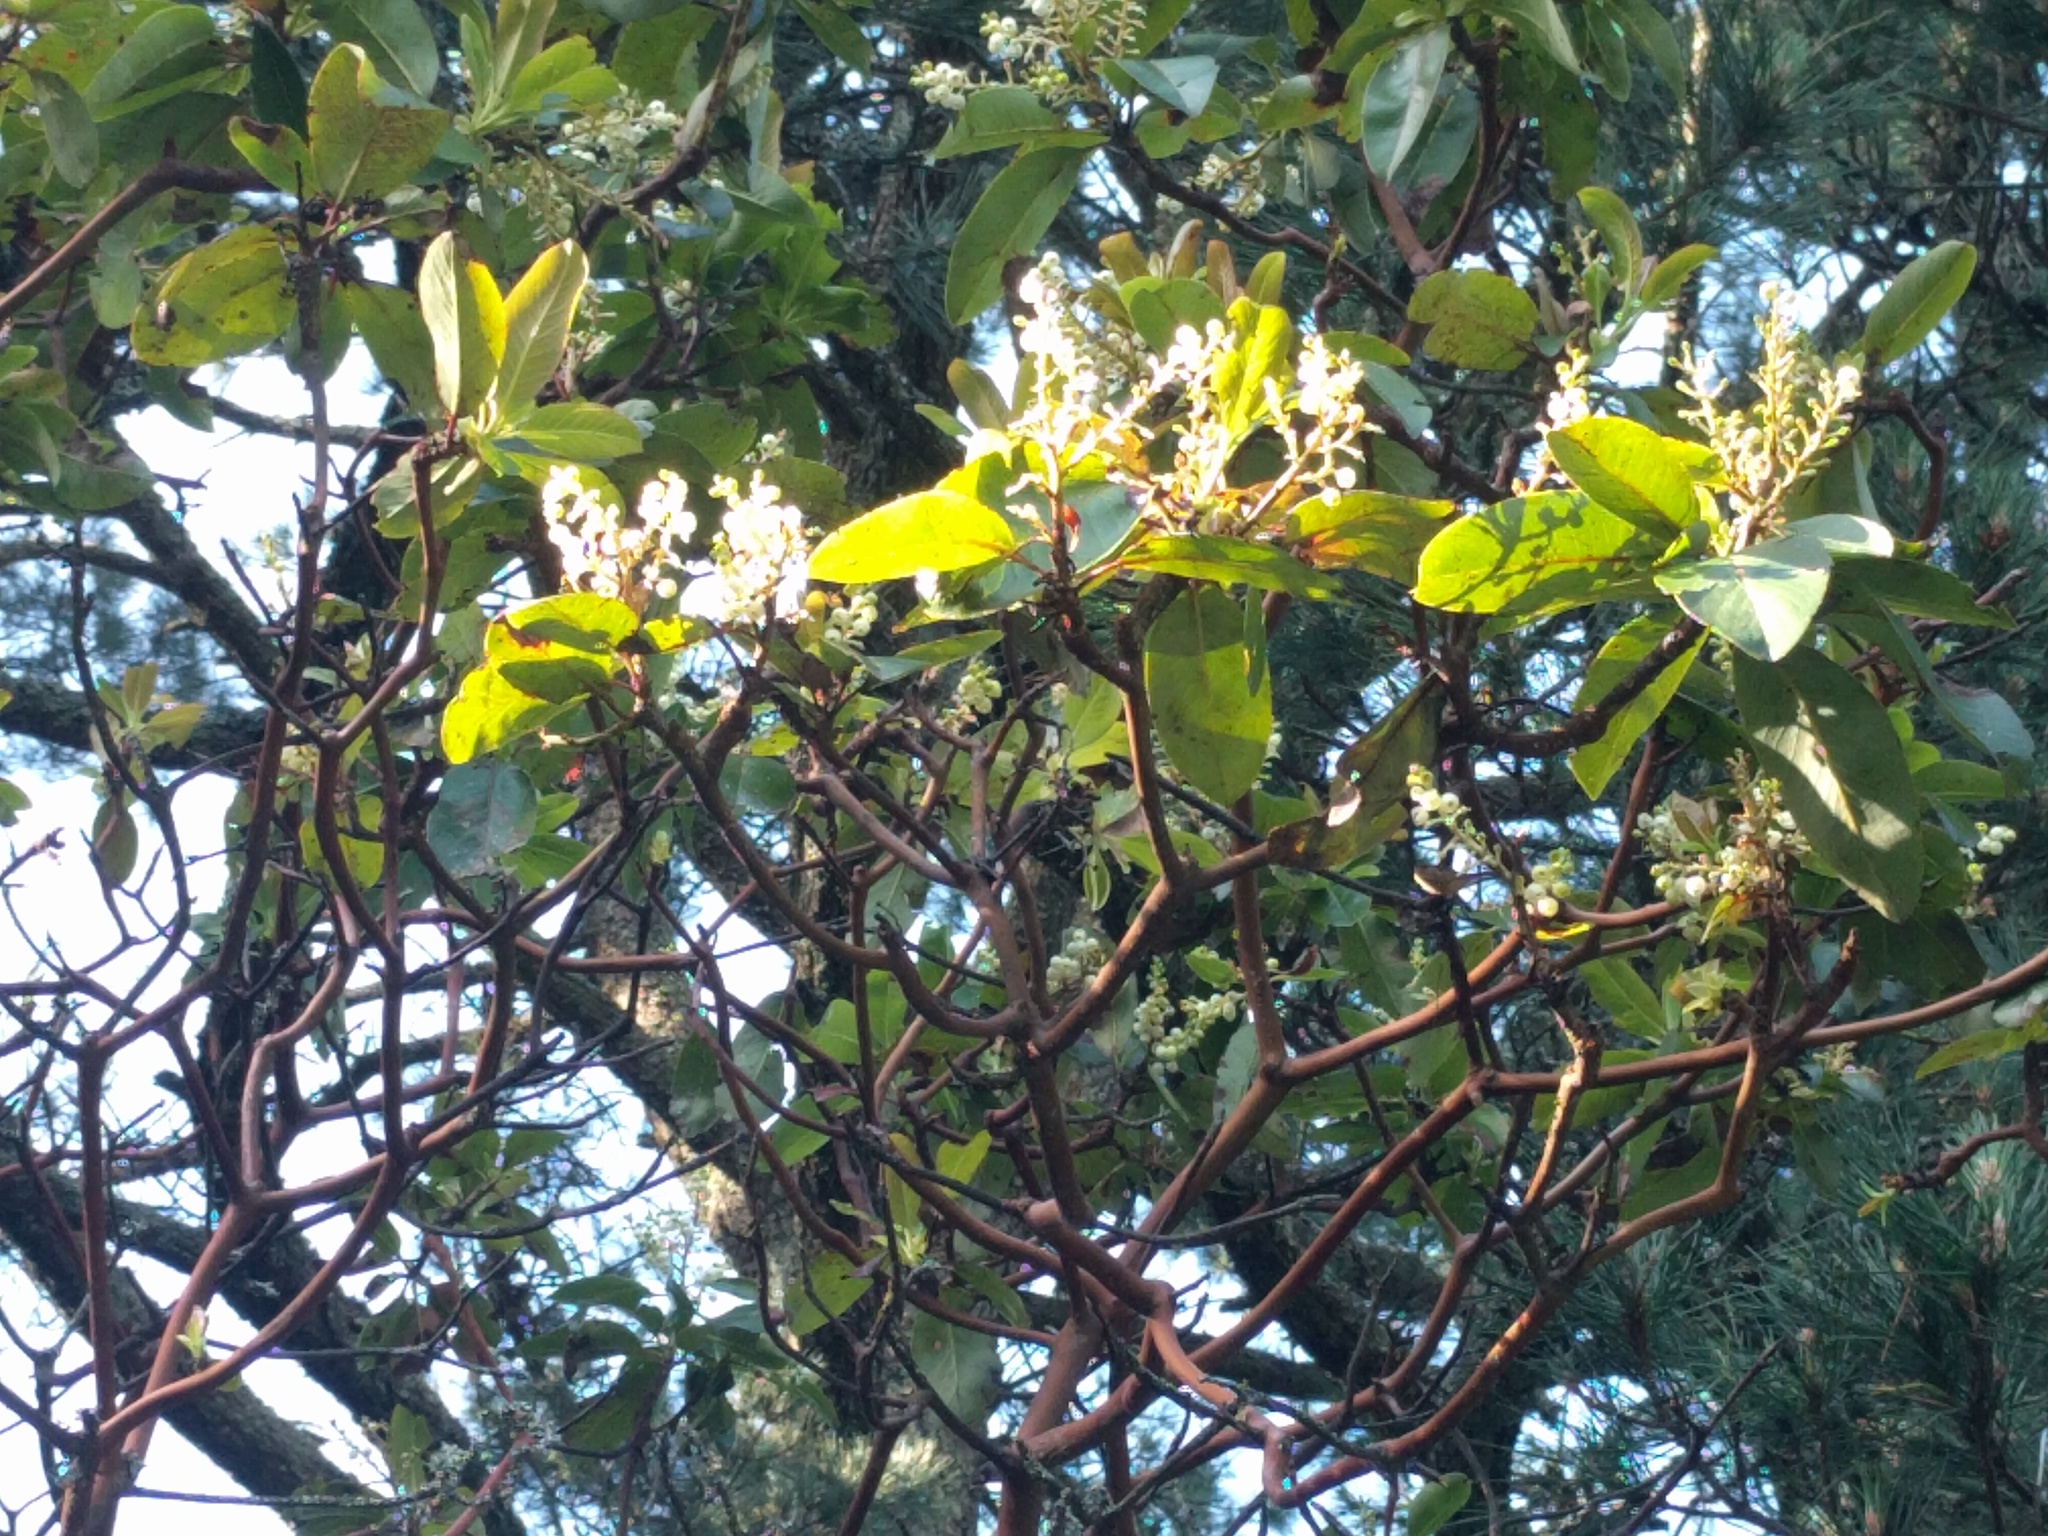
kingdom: Plantae
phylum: Tracheophyta
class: Magnoliopsida
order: Ericales
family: Ericaceae
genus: Arbutus
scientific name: Arbutus menziesii
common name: Pacific madrone
